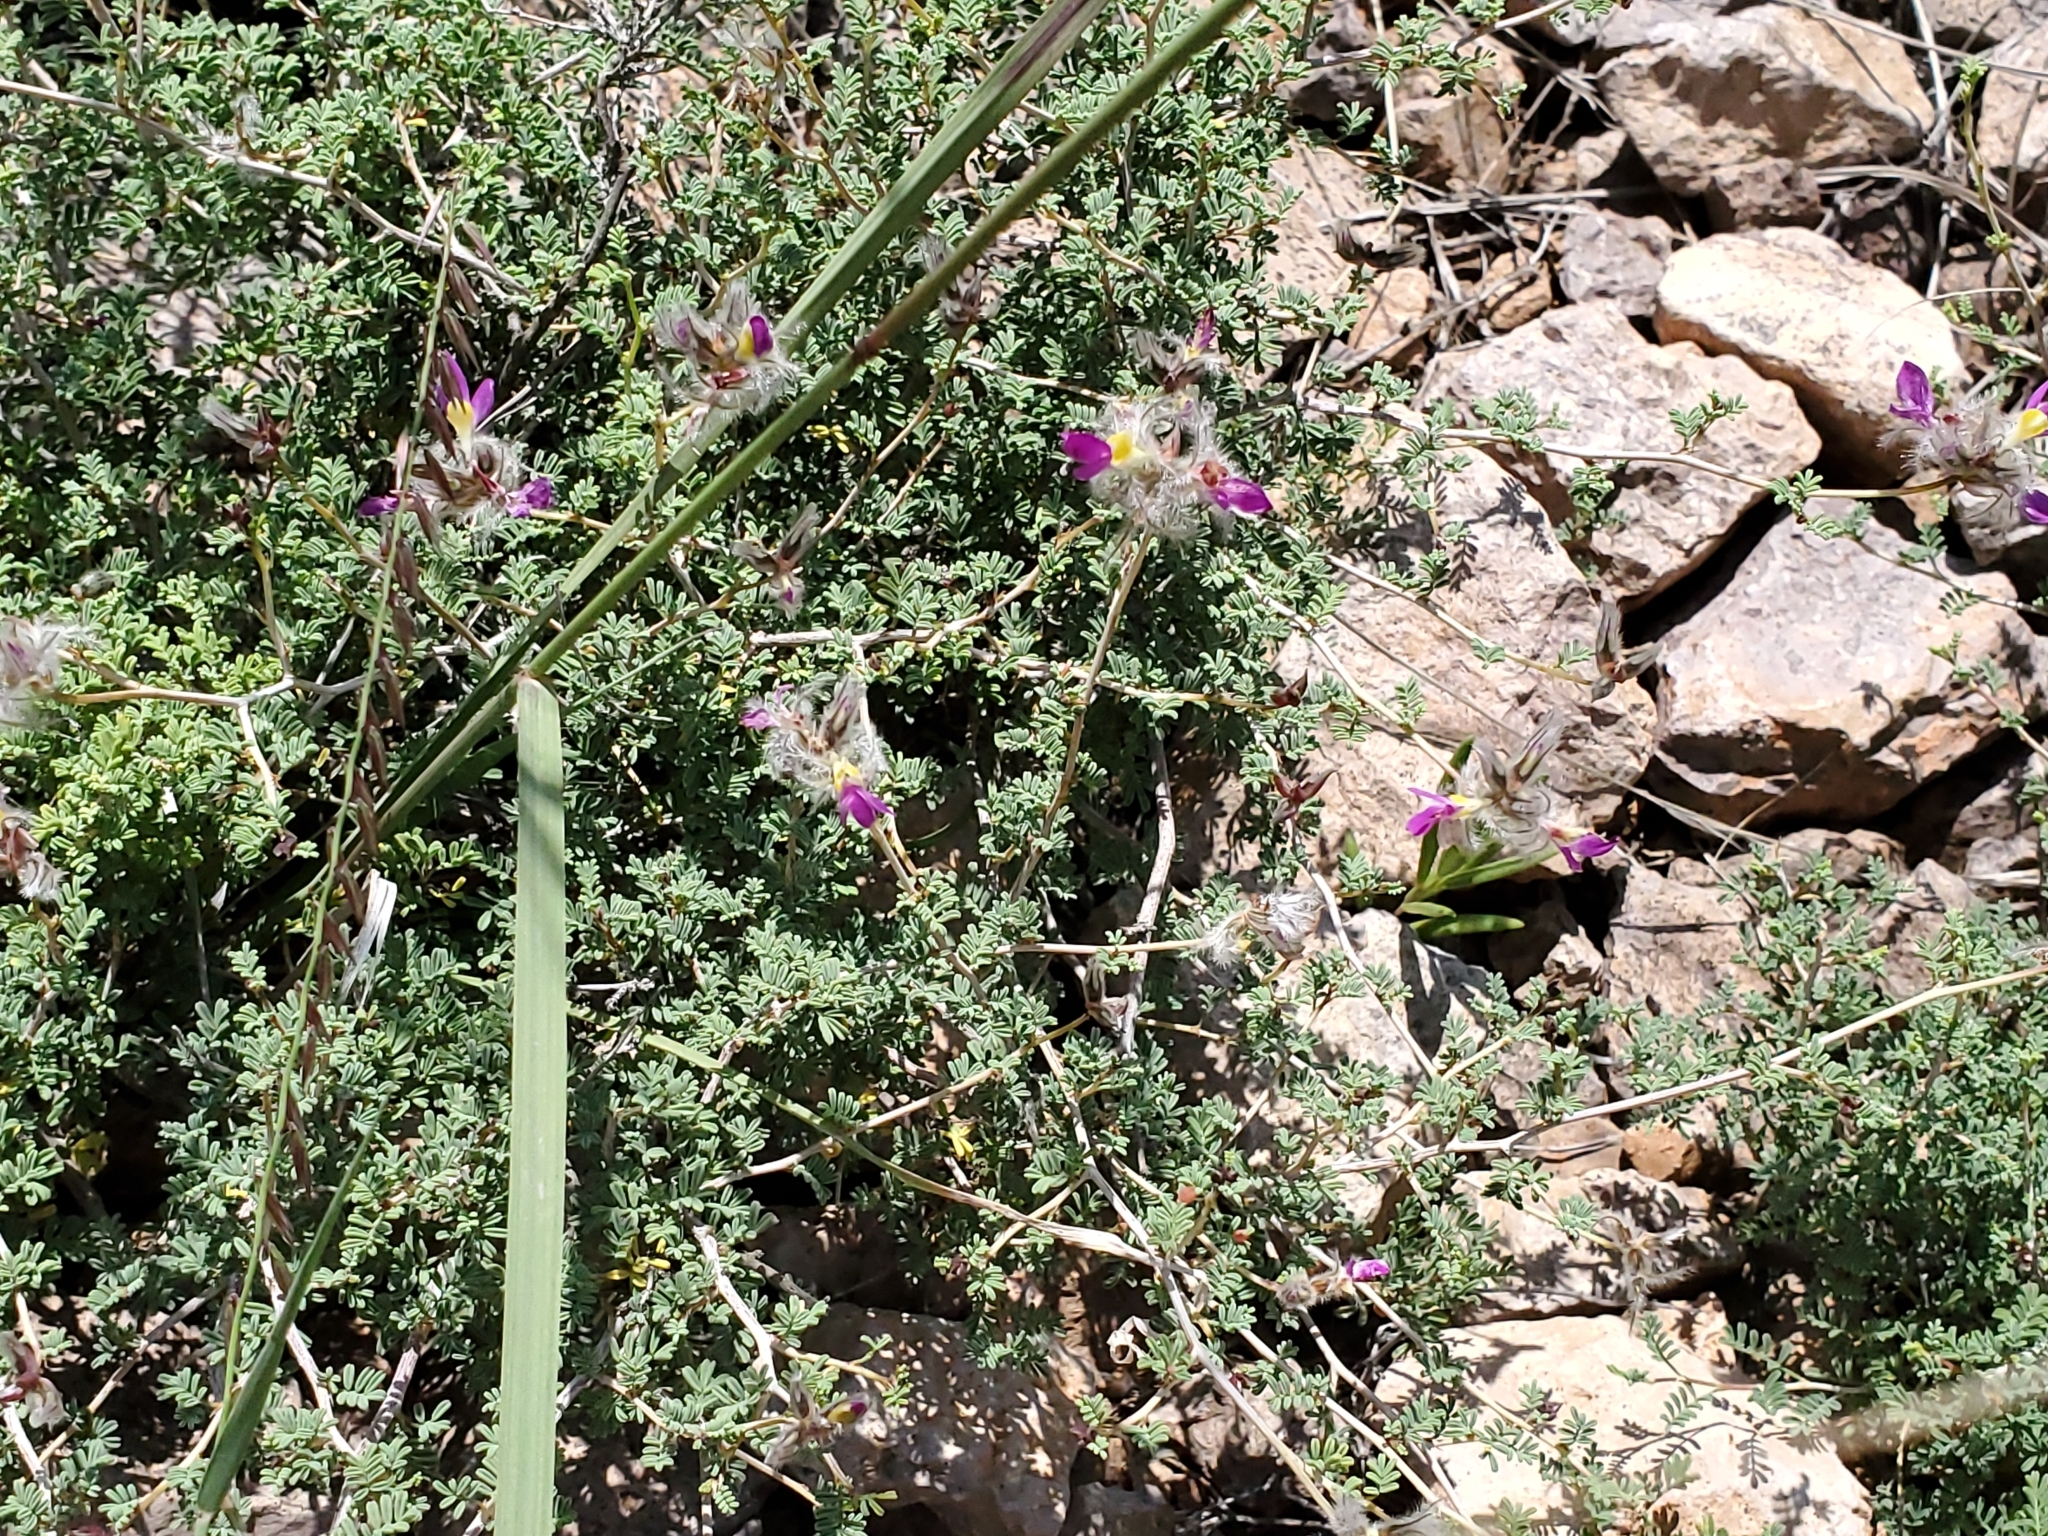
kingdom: Plantae
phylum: Tracheophyta
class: Magnoliopsida
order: Fabales
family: Fabaceae
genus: Dalea
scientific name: Dalea formosa
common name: Feather-plume dalea
